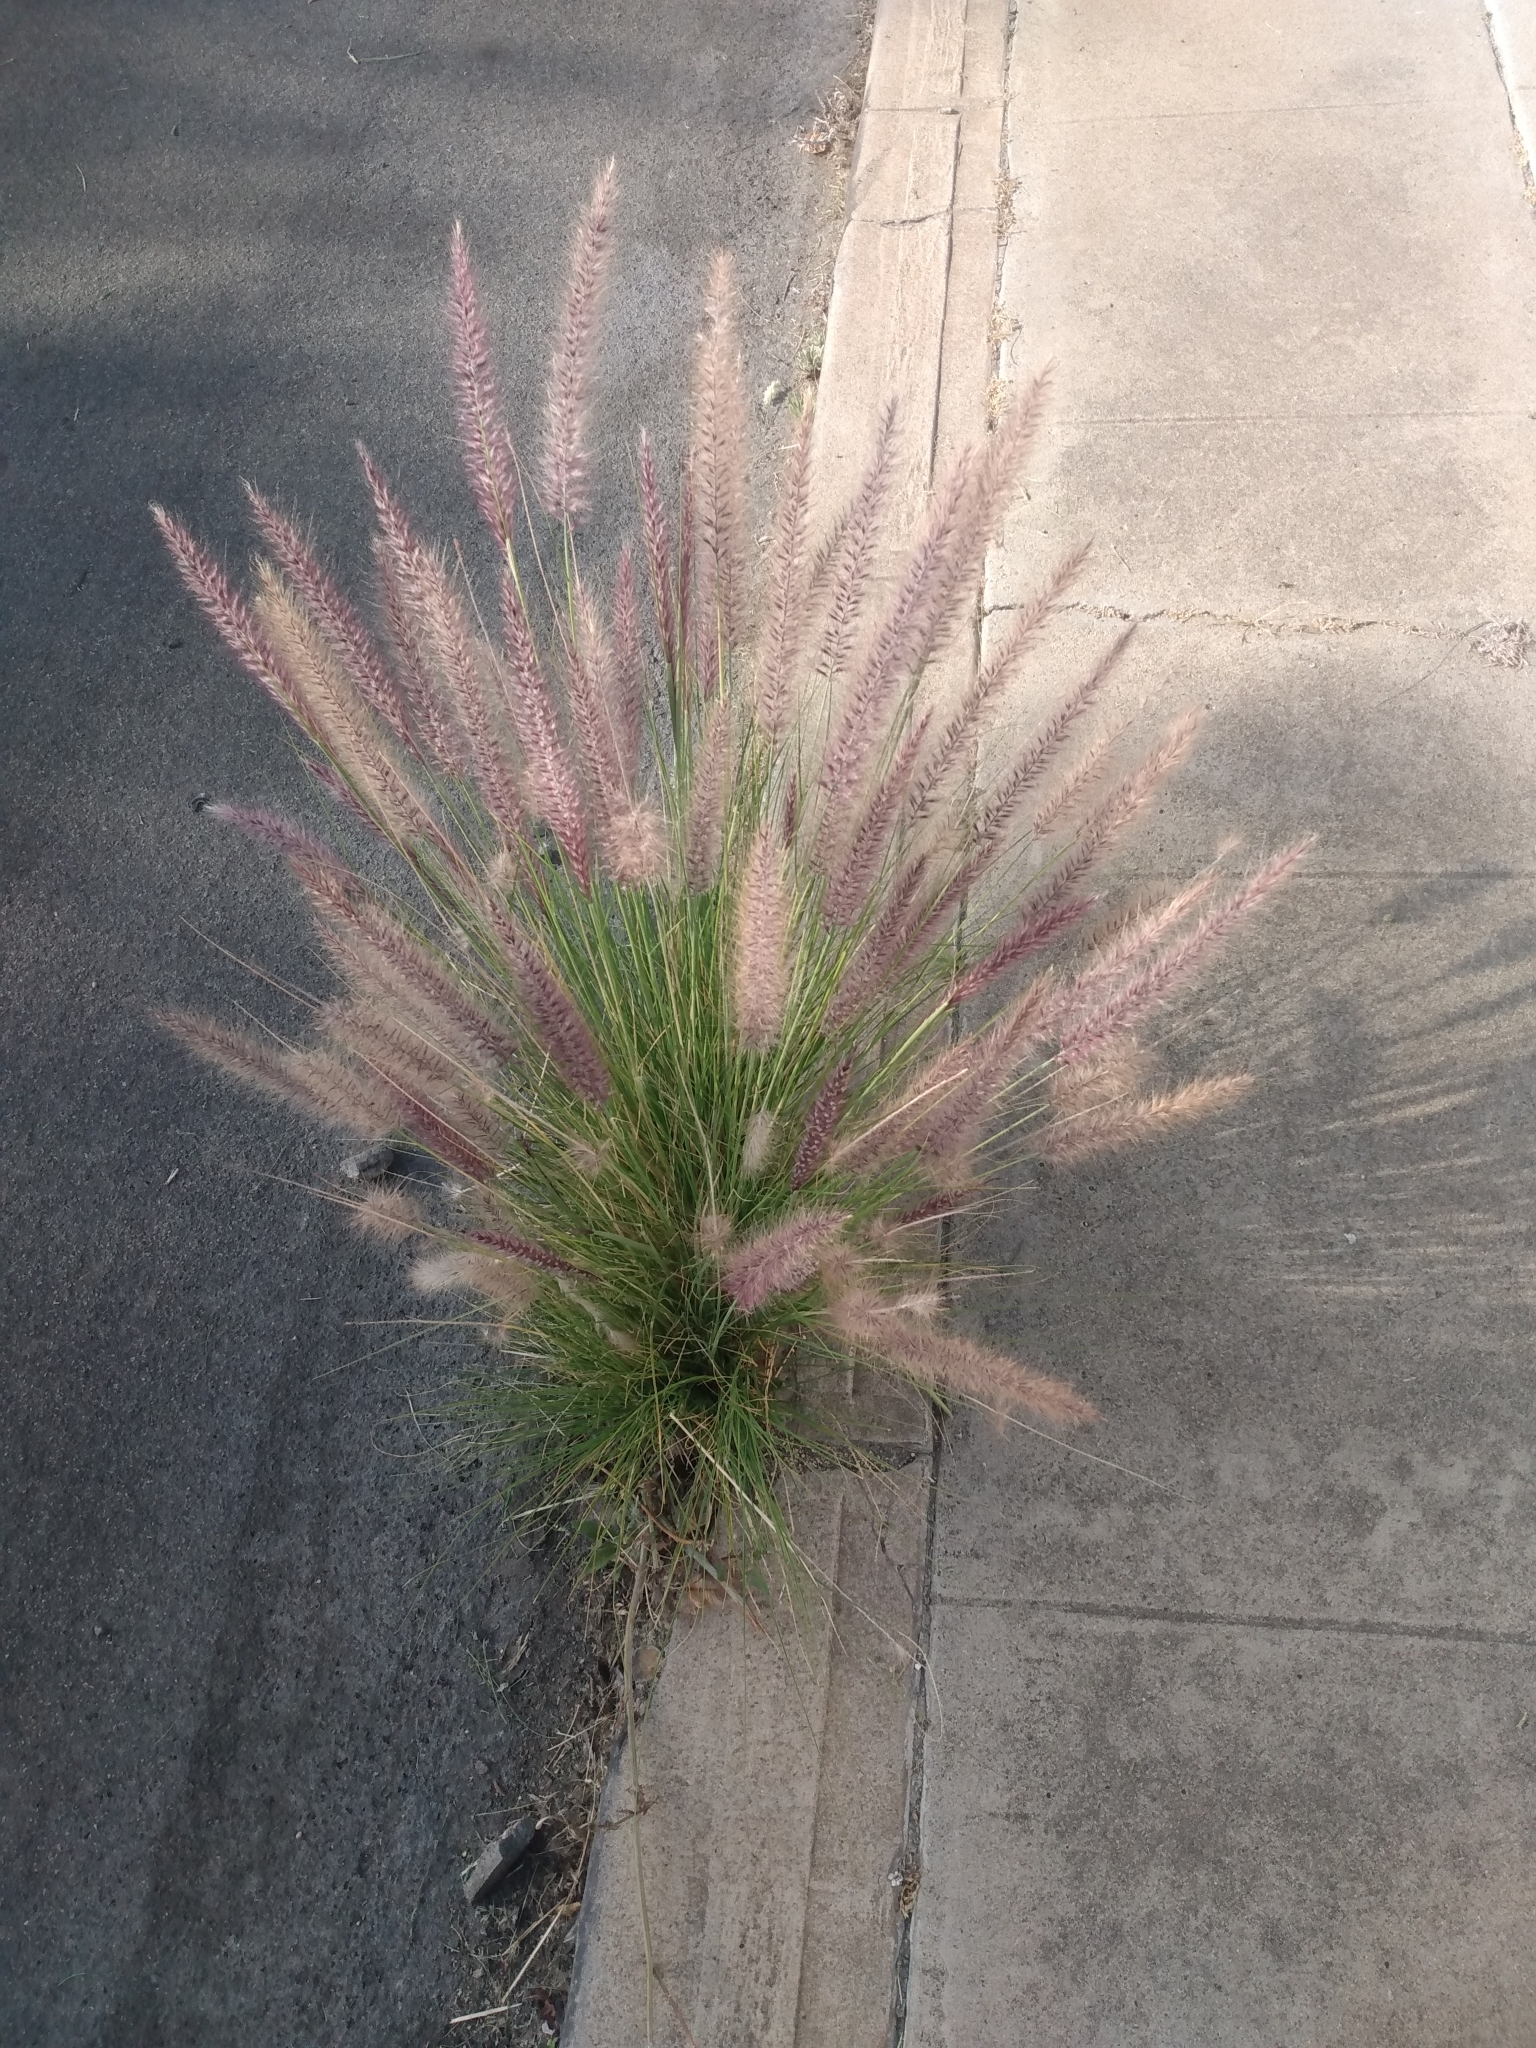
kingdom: Plantae
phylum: Tracheophyta
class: Liliopsida
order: Poales
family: Poaceae
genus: Cenchrus
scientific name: Cenchrus setaceus
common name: Crimson fountaingrass
